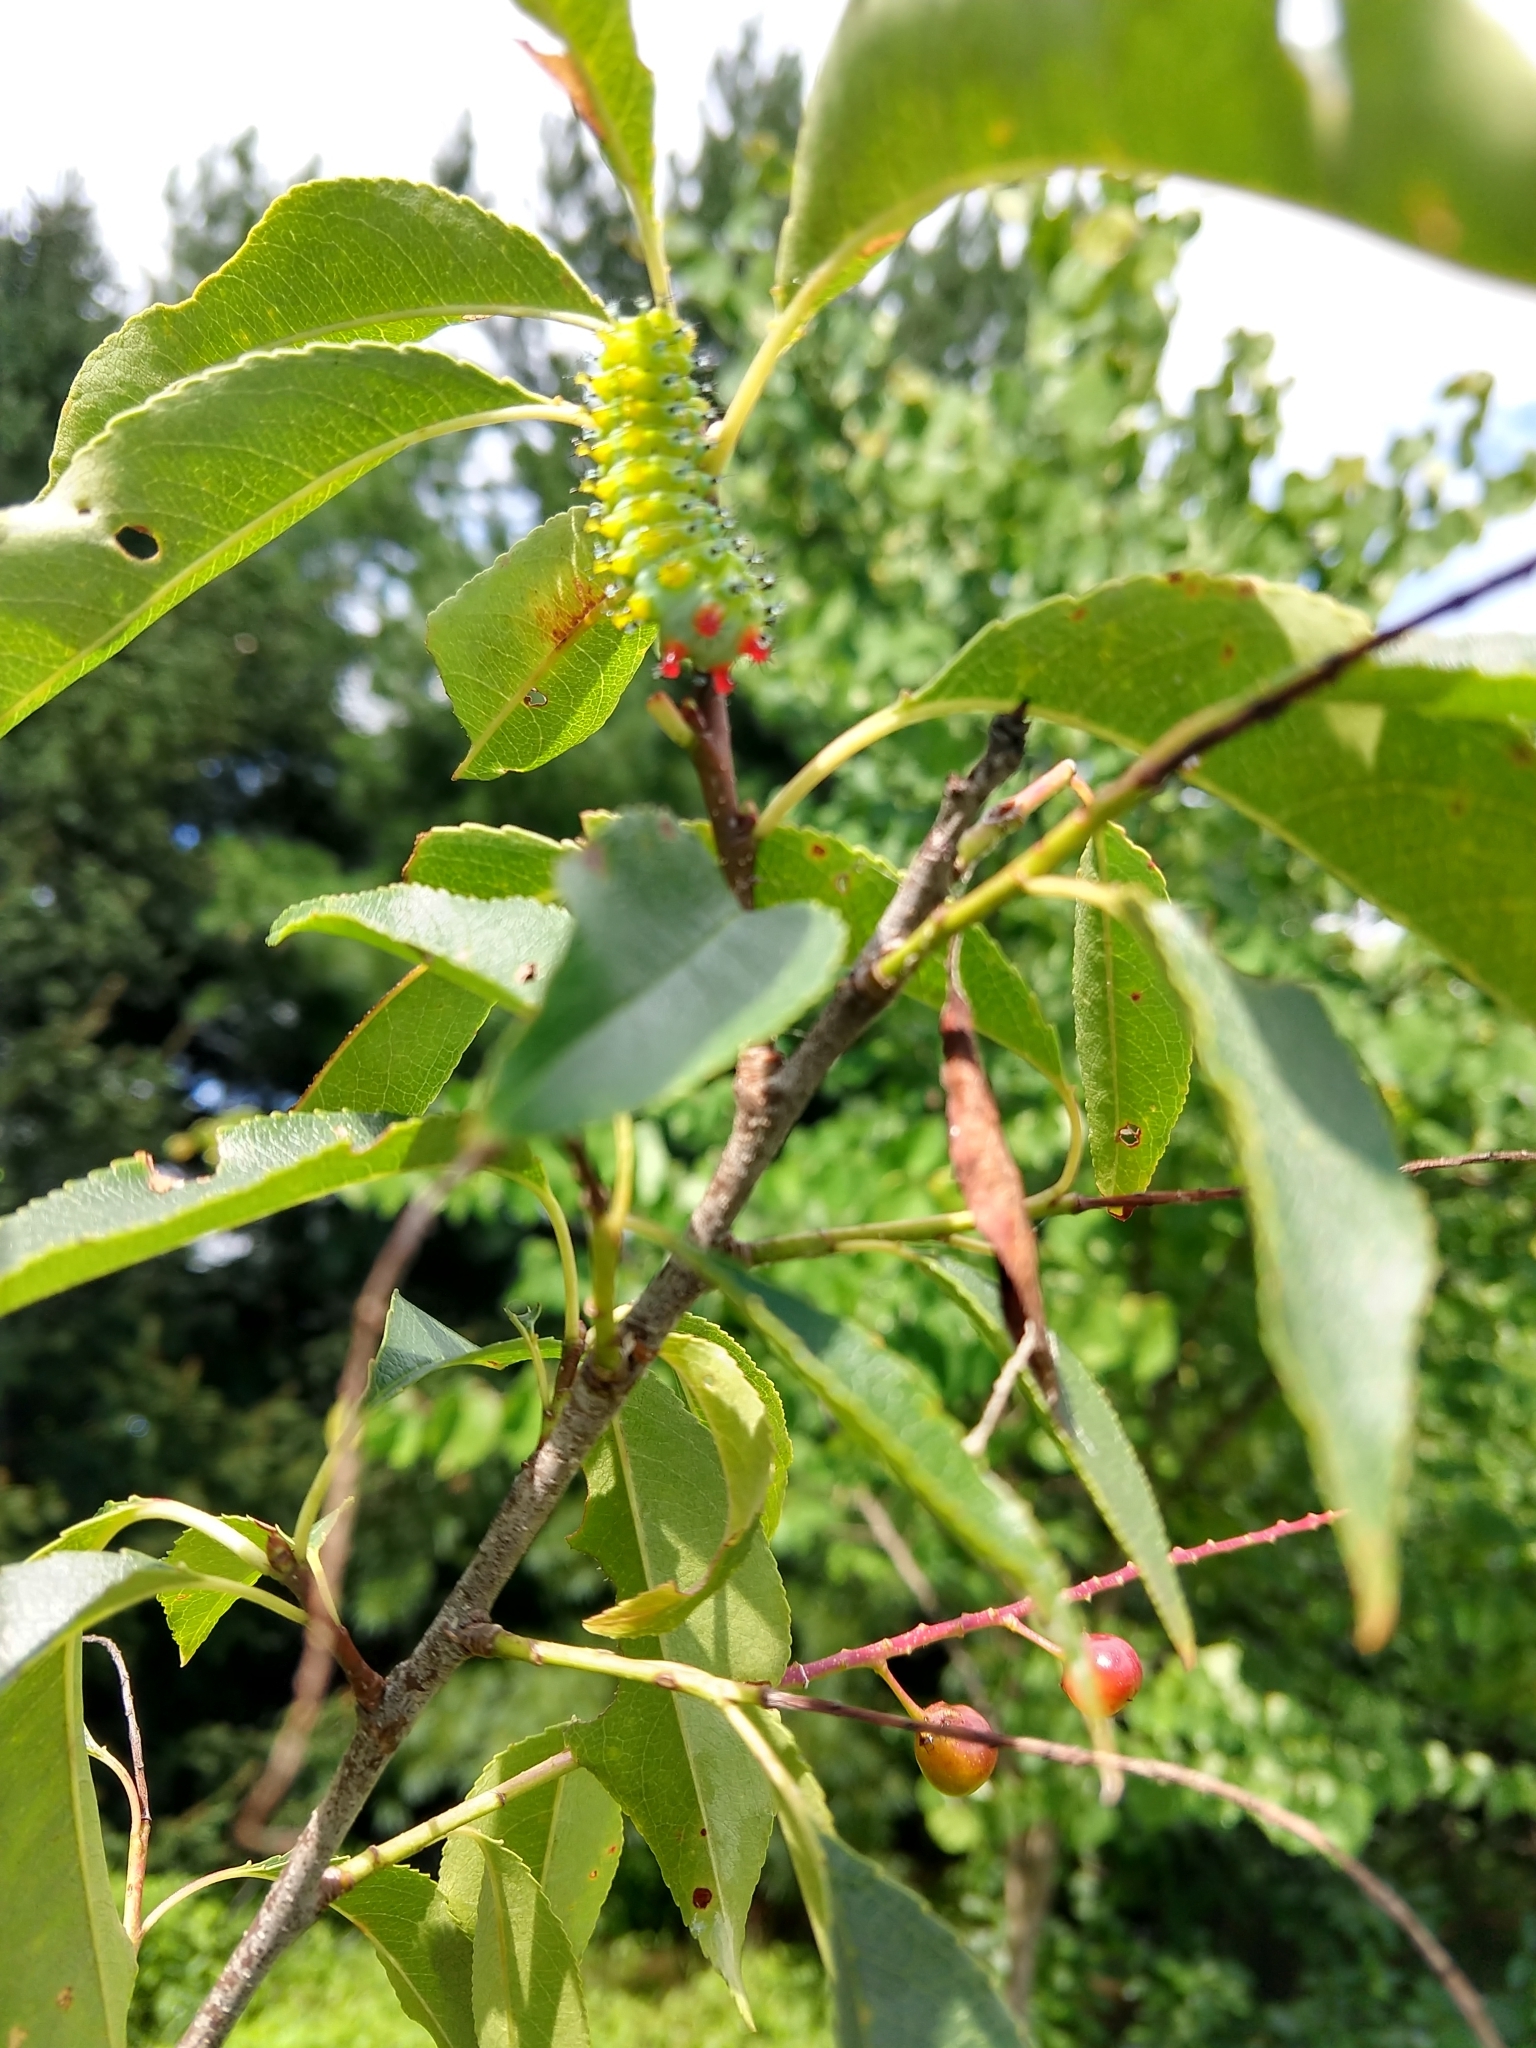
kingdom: Animalia
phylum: Arthropoda
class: Insecta
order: Lepidoptera
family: Saturniidae
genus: Hyalophora
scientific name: Hyalophora cecropia
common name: Cecropia silkmoth
